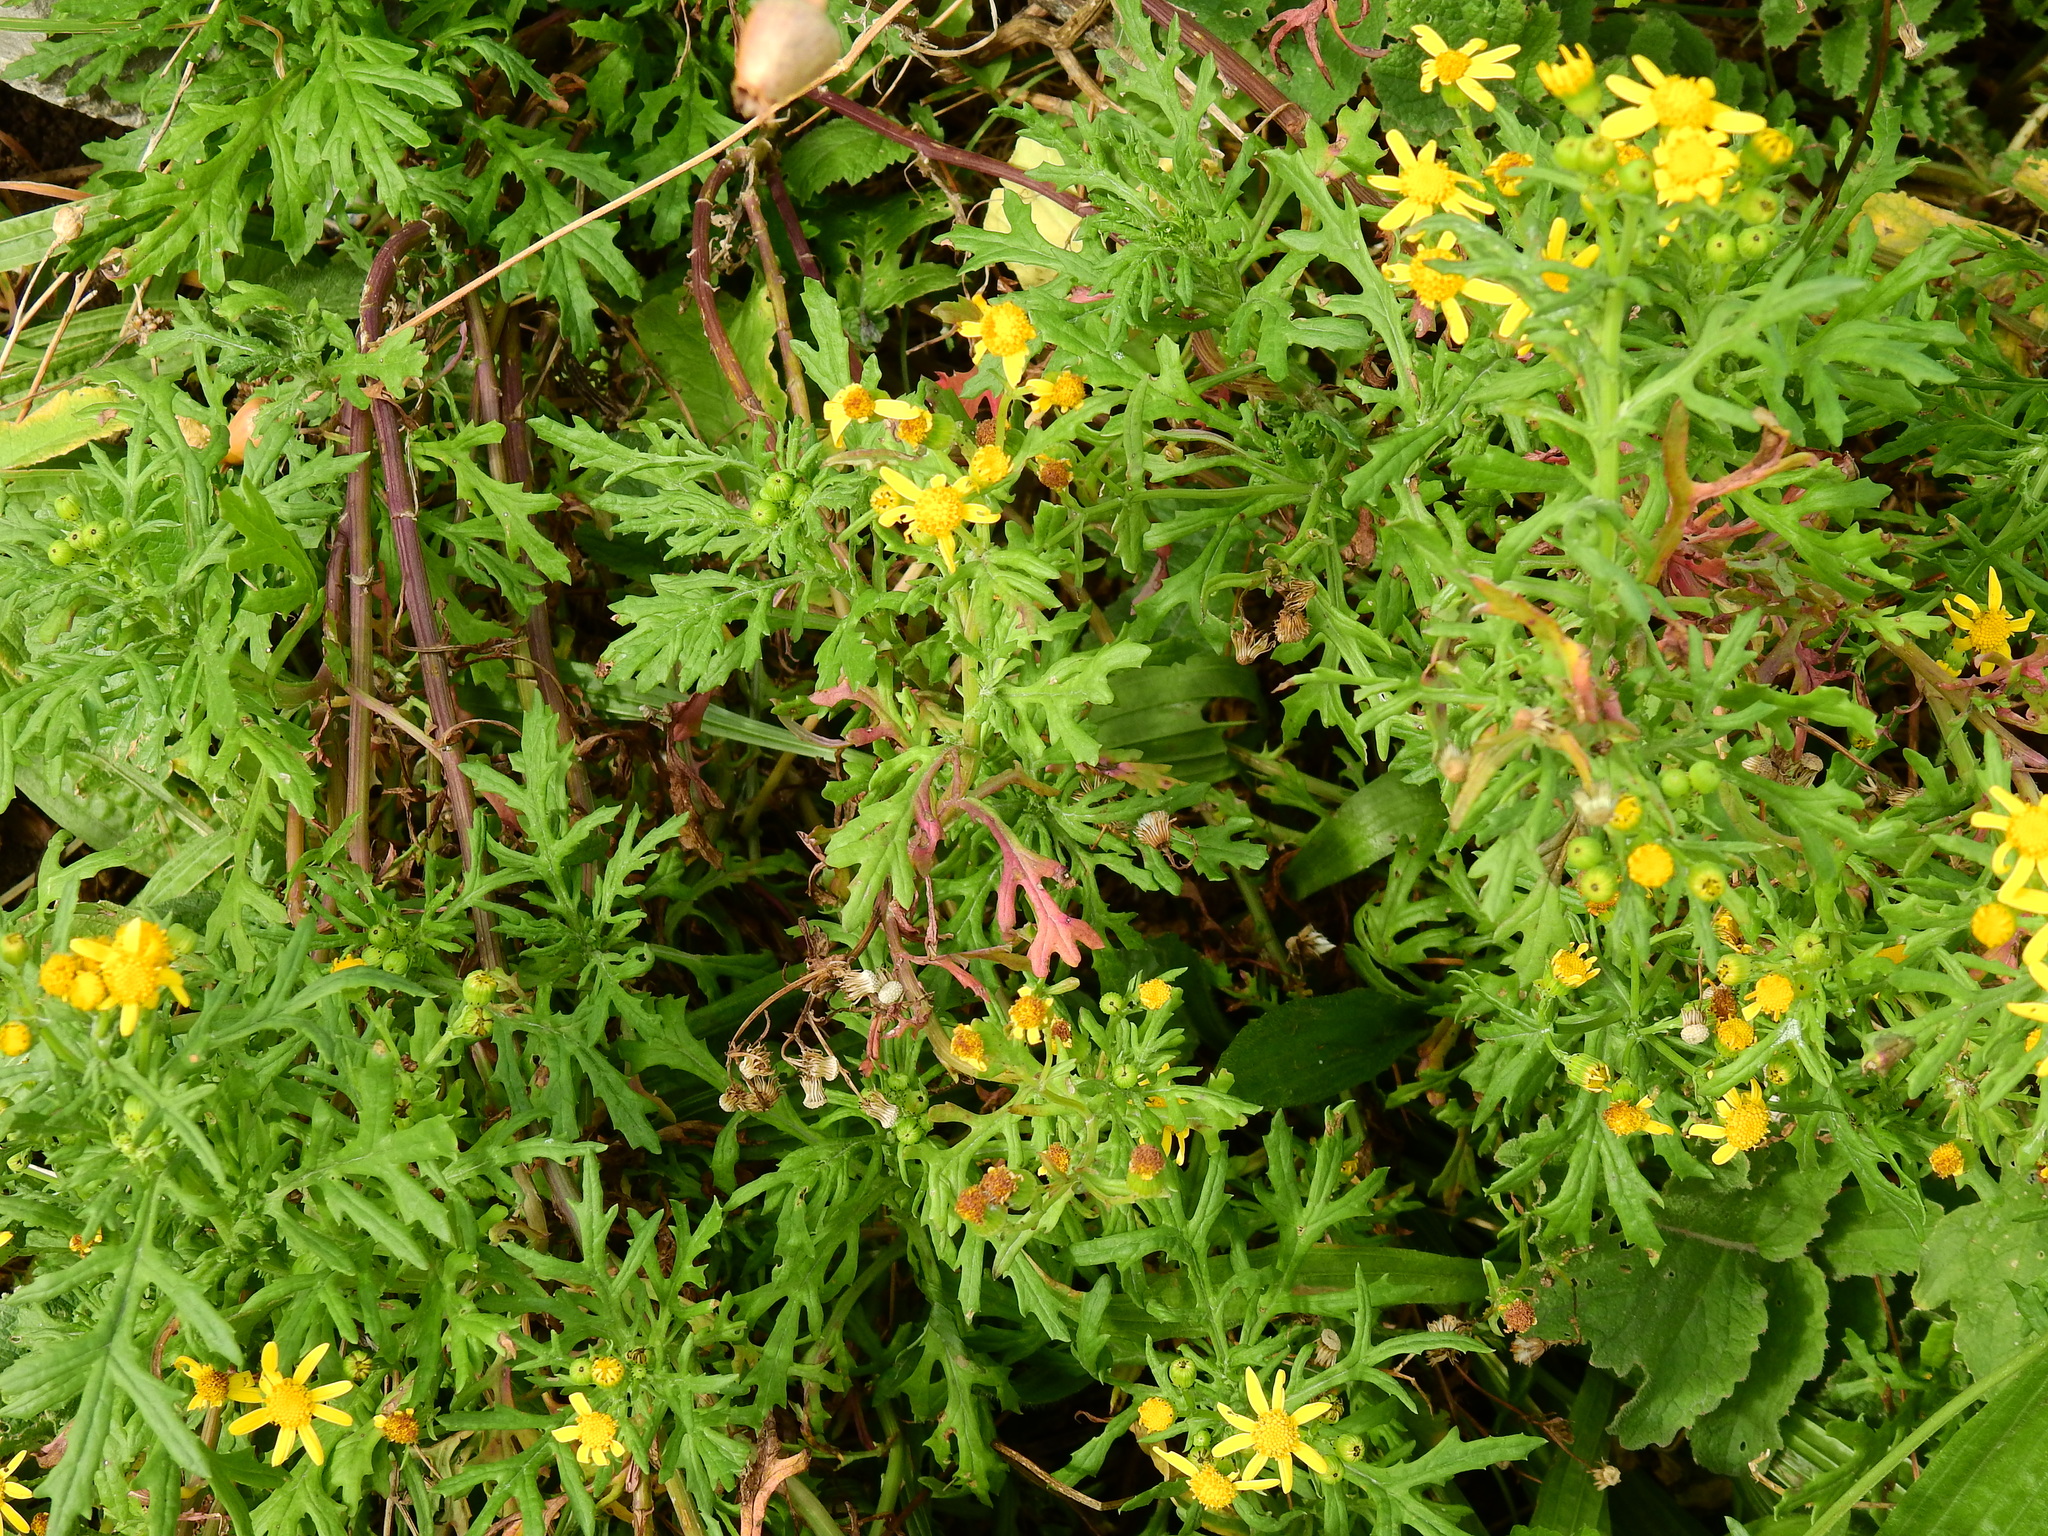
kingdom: Plantae
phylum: Tracheophyta
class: Magnoliopsida
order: Asterales
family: Asteraceae
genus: Jacobaea
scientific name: Jacobaea erucifolia
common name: Hoary ragwort
